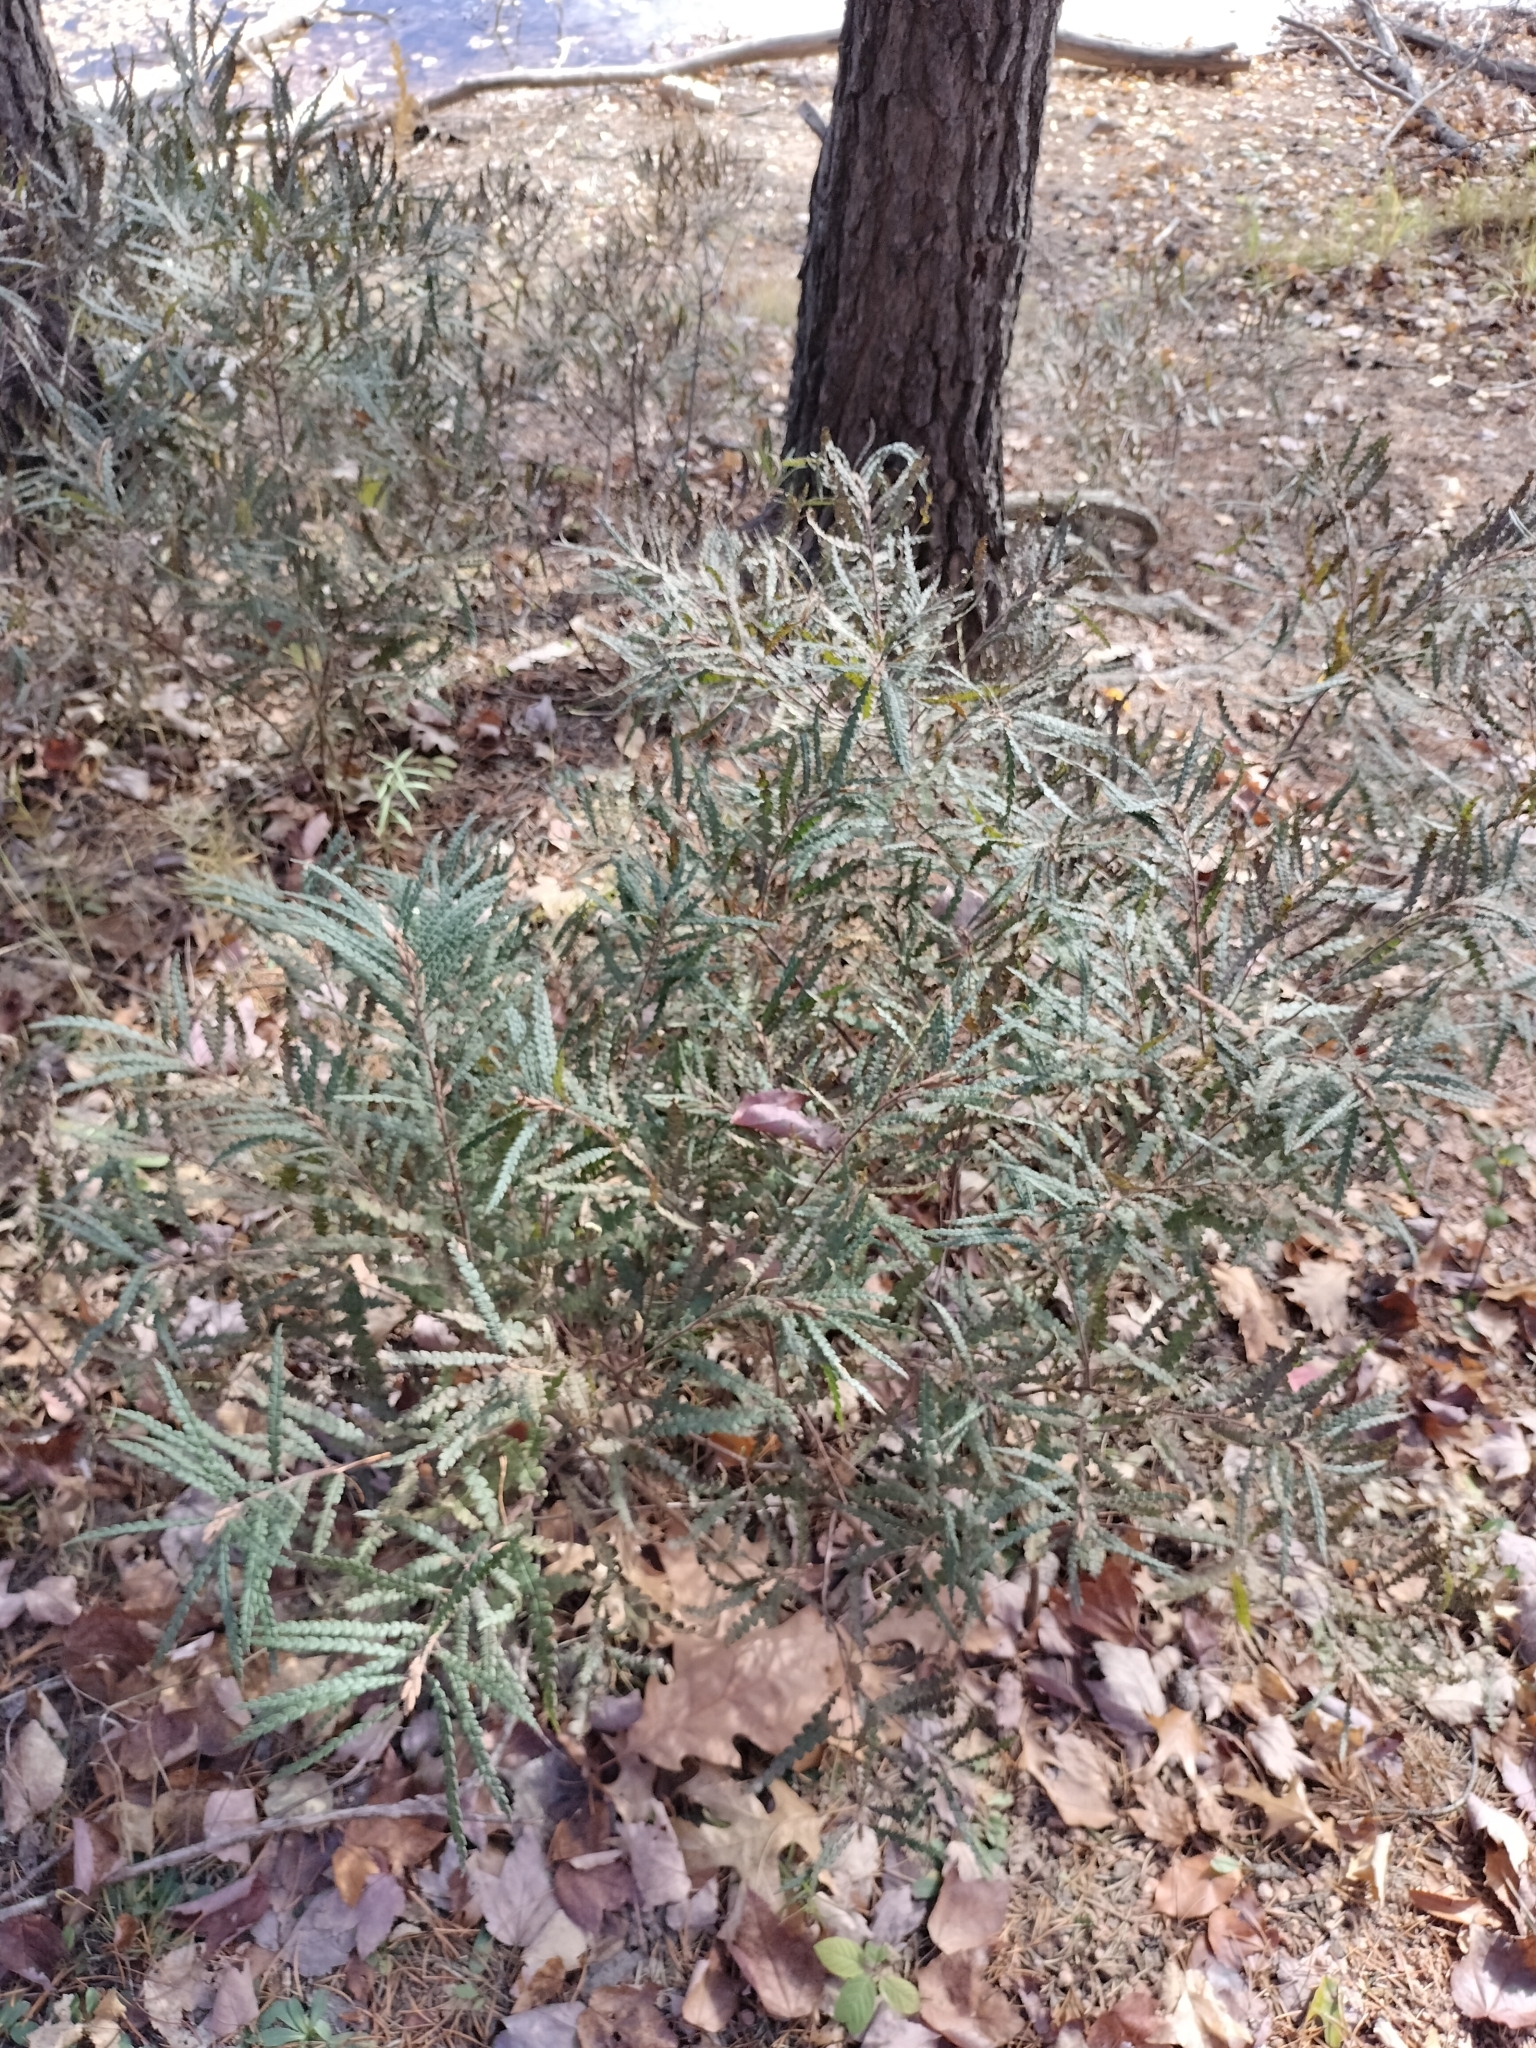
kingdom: Plantae
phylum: Tracheophyta
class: Magnoliopsida
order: Fagales
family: Myricaceae
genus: Comptonia
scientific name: Comptonia peregrina
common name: Sweet-fern
